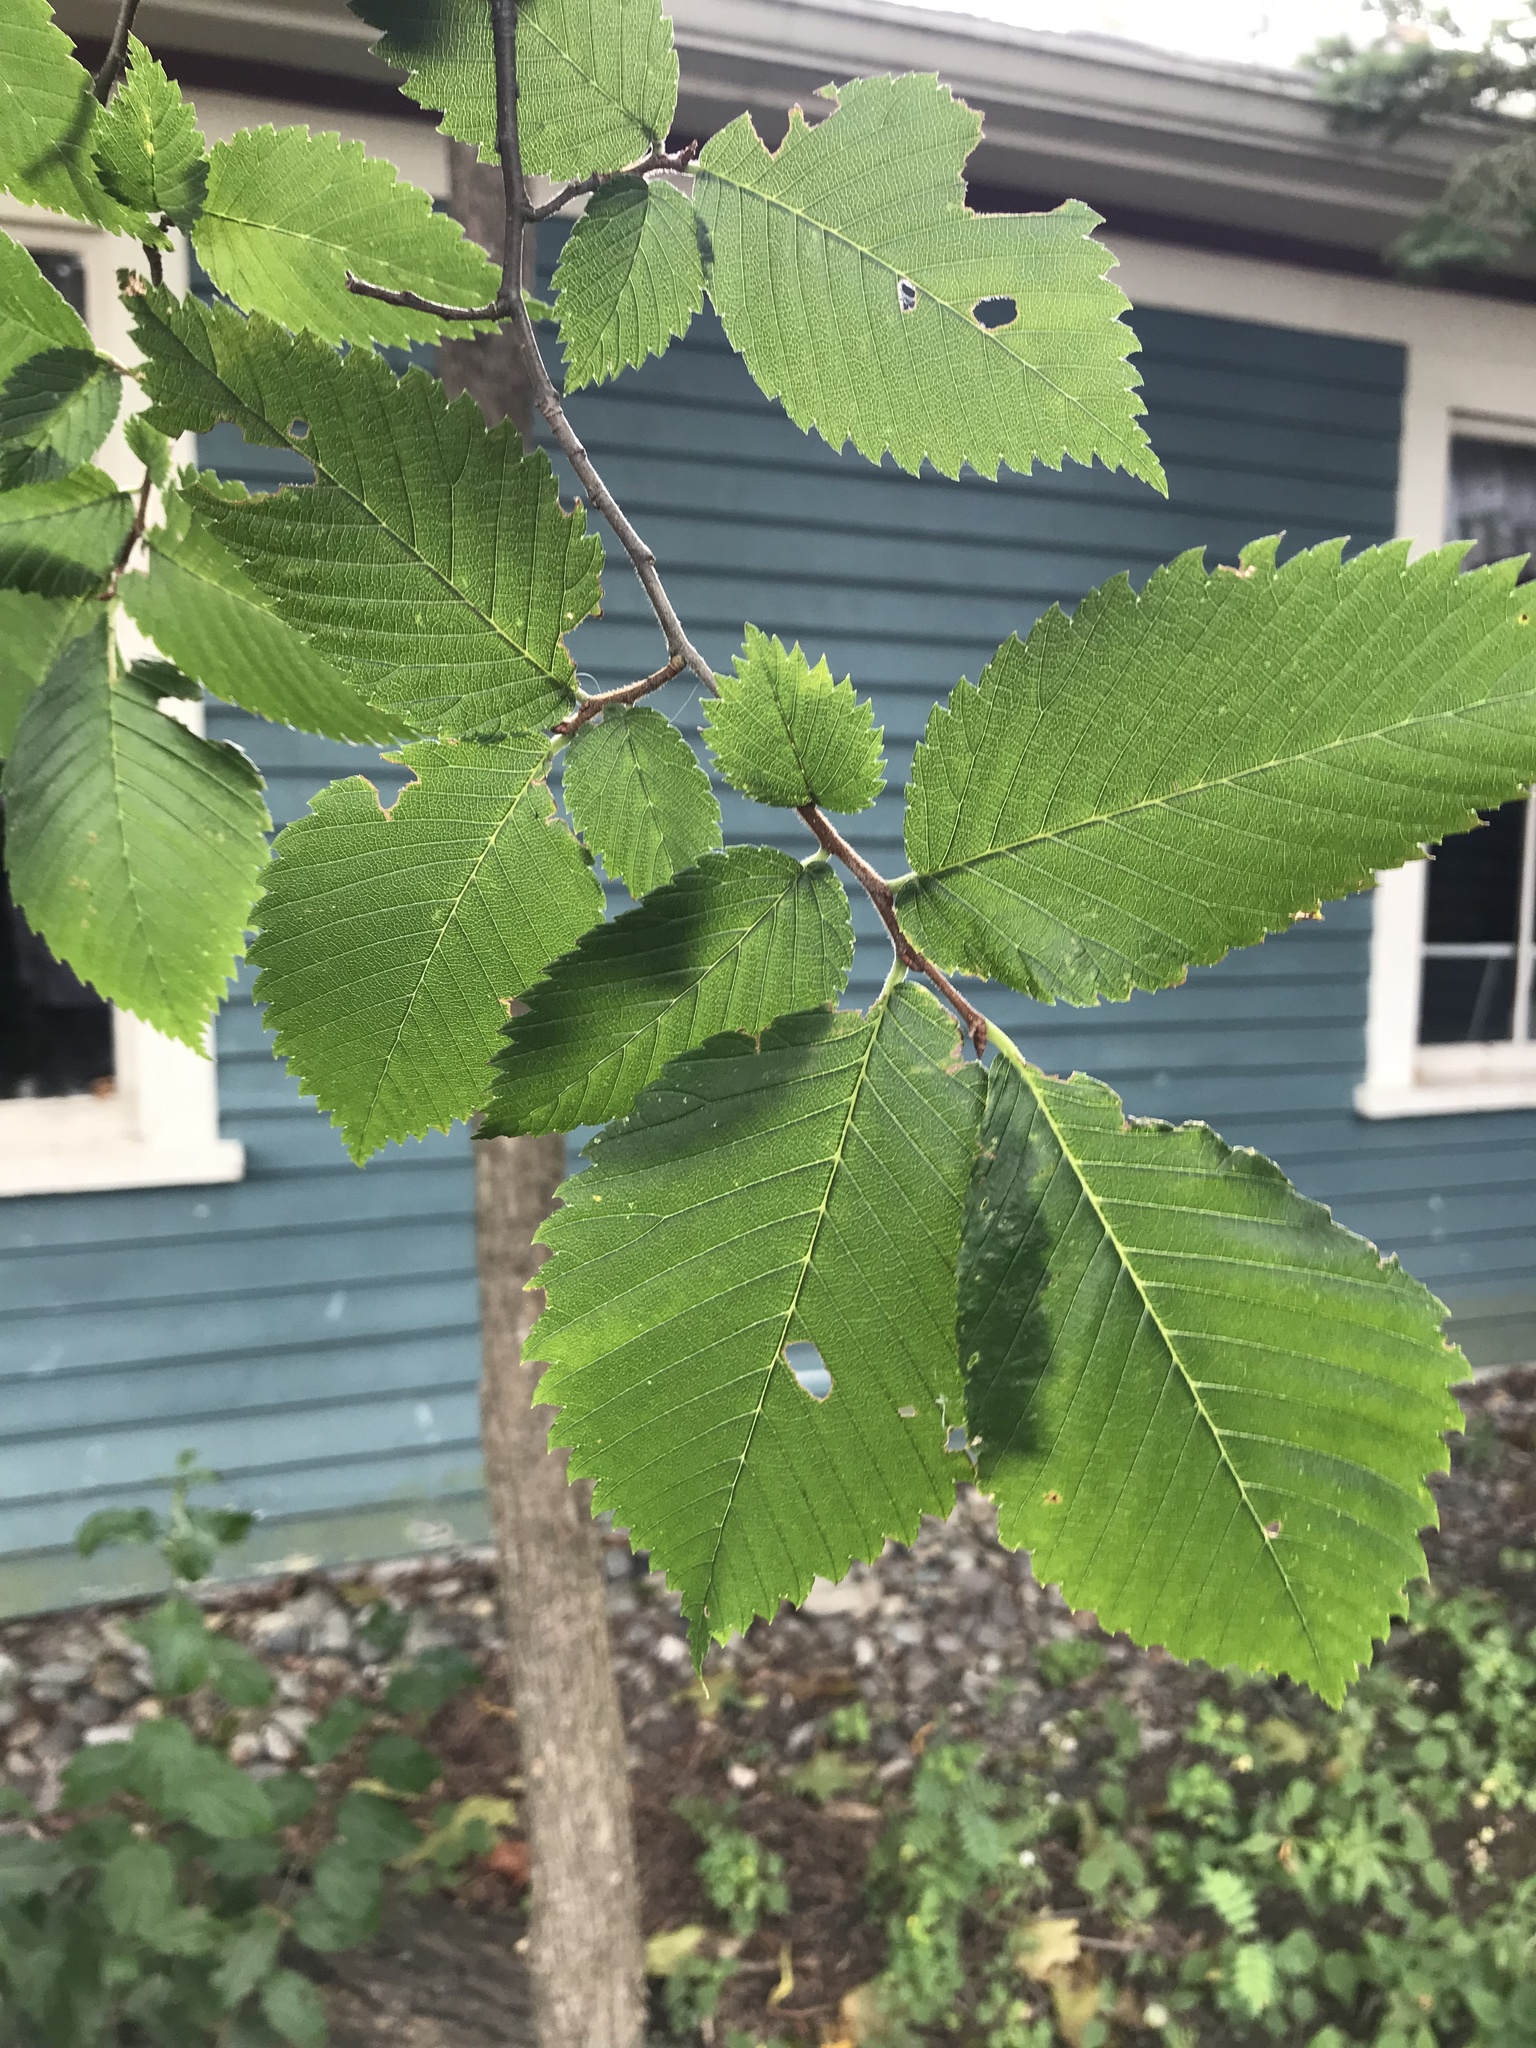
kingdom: Plantae
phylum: Tracheophyta
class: Magnoliopsida
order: Rosales
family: Ulmaceae
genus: Ulmus
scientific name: Ulmus americana
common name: American elm
